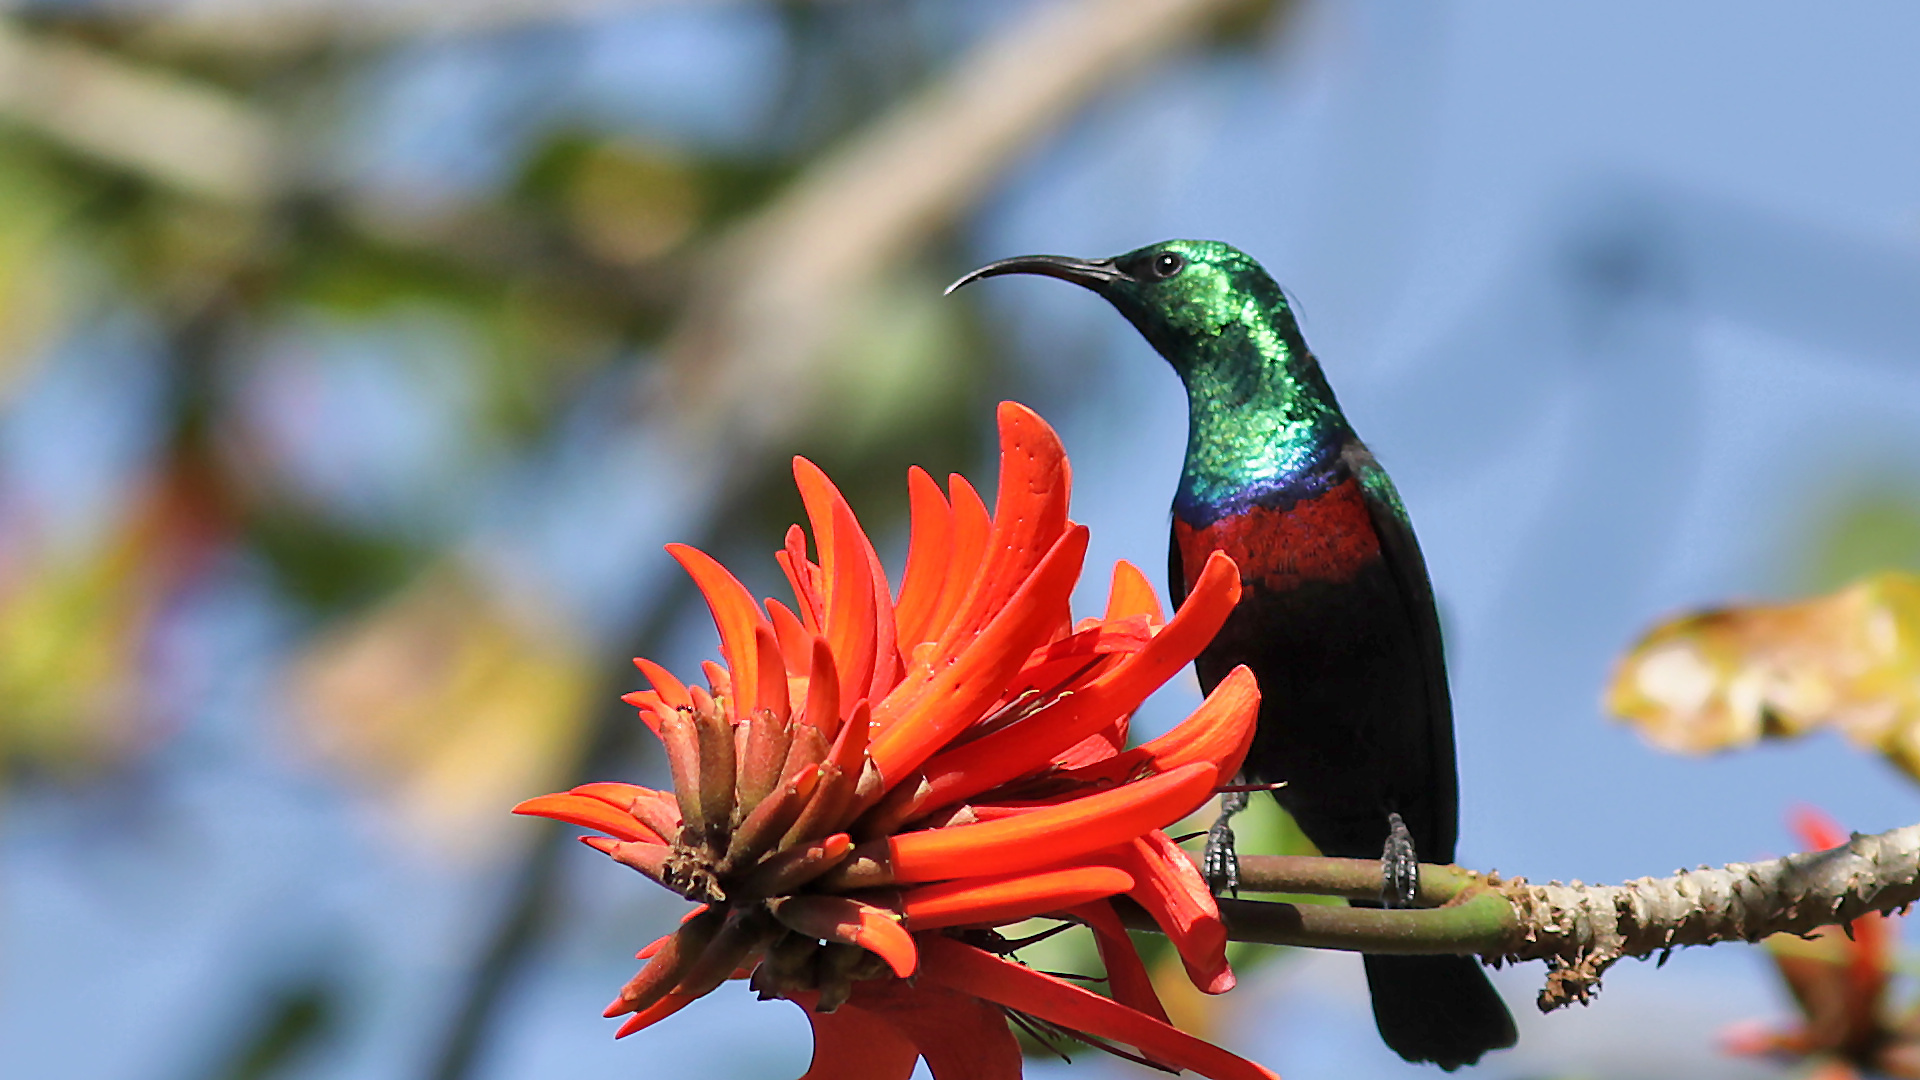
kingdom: Animalia
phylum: Chordata
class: Aves
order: Passeriformes
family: Nectariniidae
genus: Cinnyris
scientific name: Cinnyris mariquensis
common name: Marico sunbird
